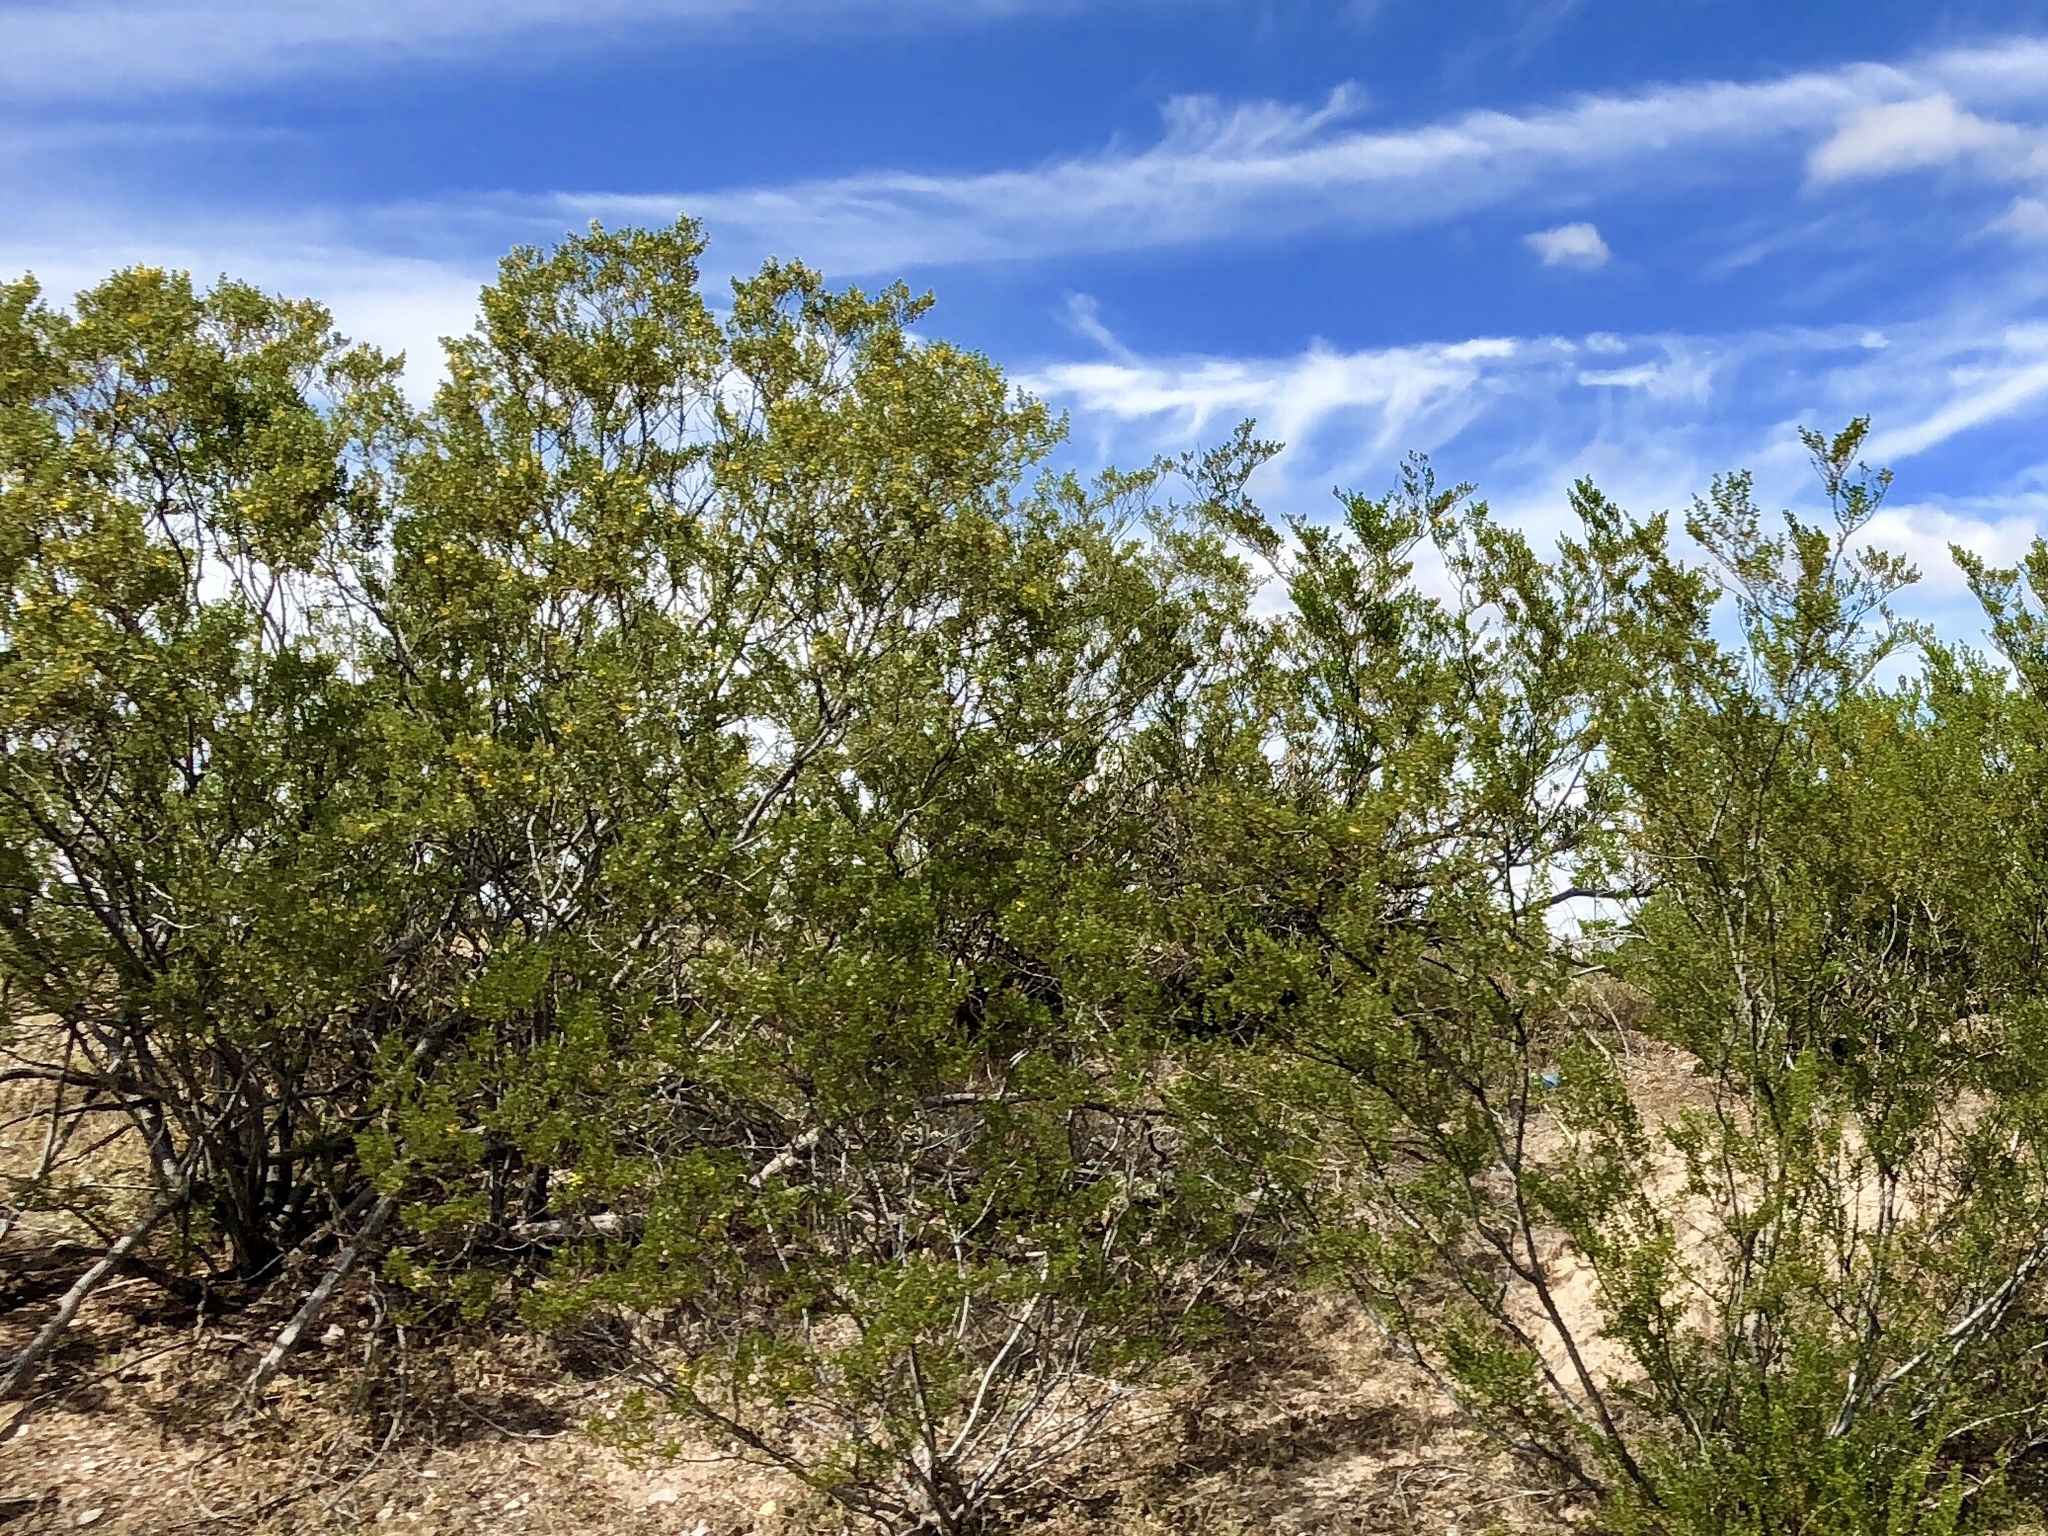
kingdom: Plantae
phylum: Tracheophyta
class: Magnoliopsida
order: Zygophyllales
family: Zygophyllaceae
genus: Larrea
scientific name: Larrea tridentata
